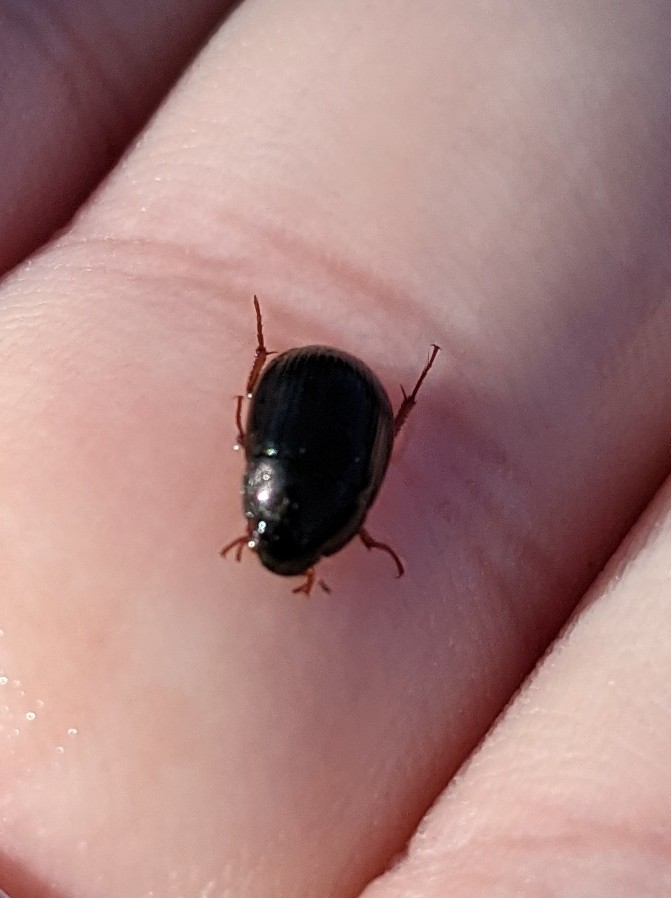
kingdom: Animalia
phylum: Arthropoda
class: Insecta
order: Coleoptera
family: Hydrophilidae
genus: Hydrobius
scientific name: Hydrobius fuscipes
